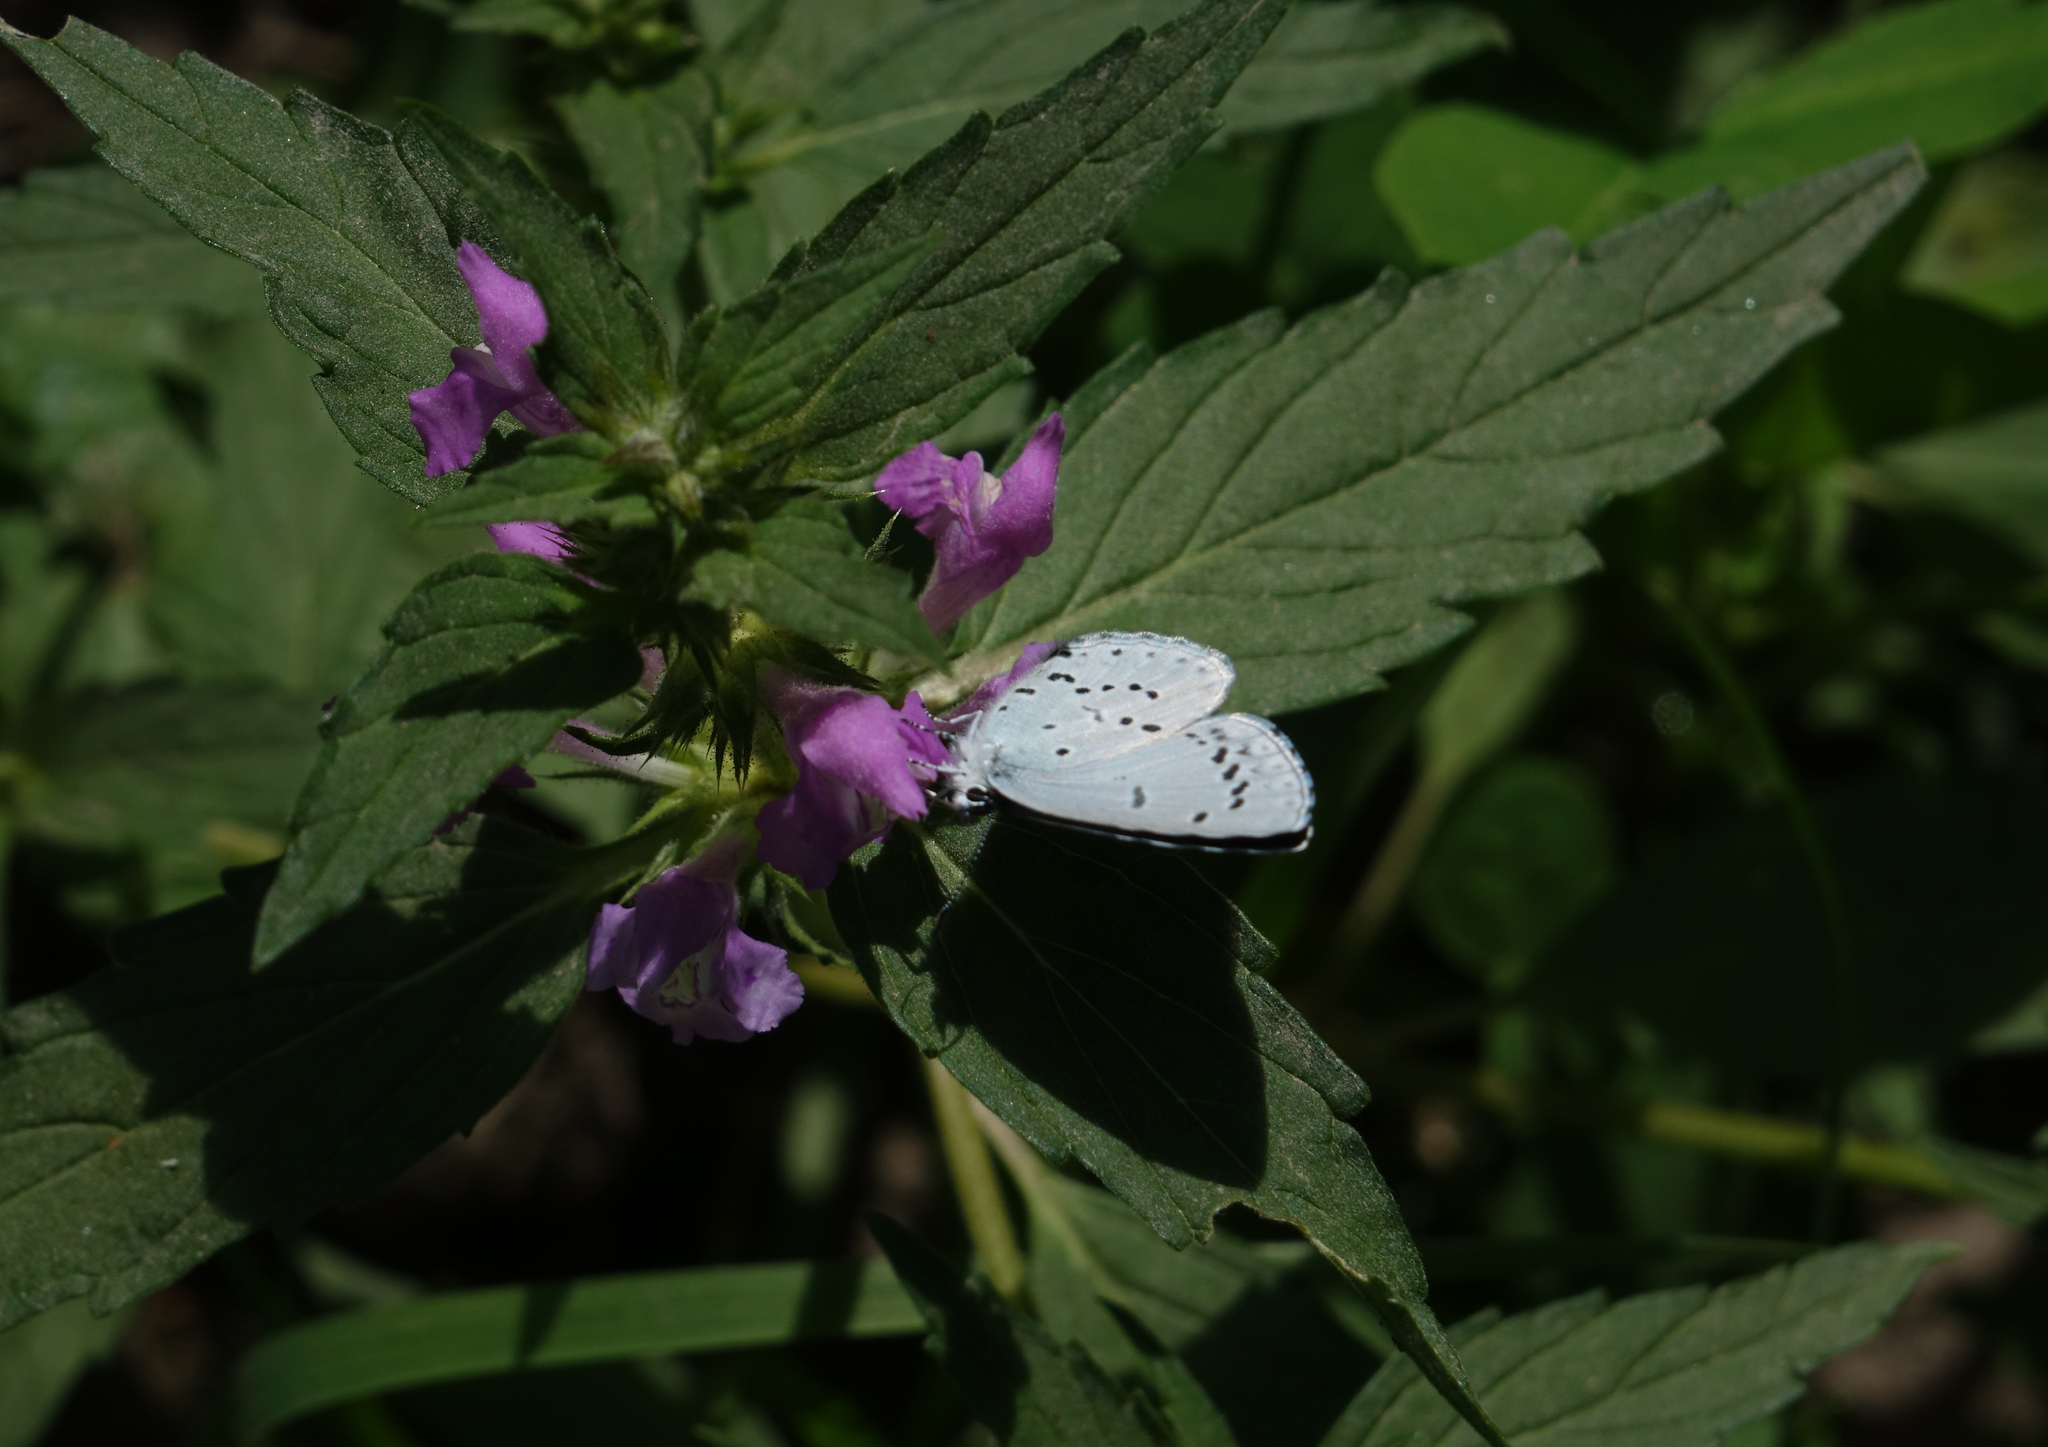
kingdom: Animalia
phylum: Arthropoda
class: Insecta
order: Lepidoptera
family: Lycaenidae
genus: Celastrina
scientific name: Celastrina argiolus
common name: Holly blue
